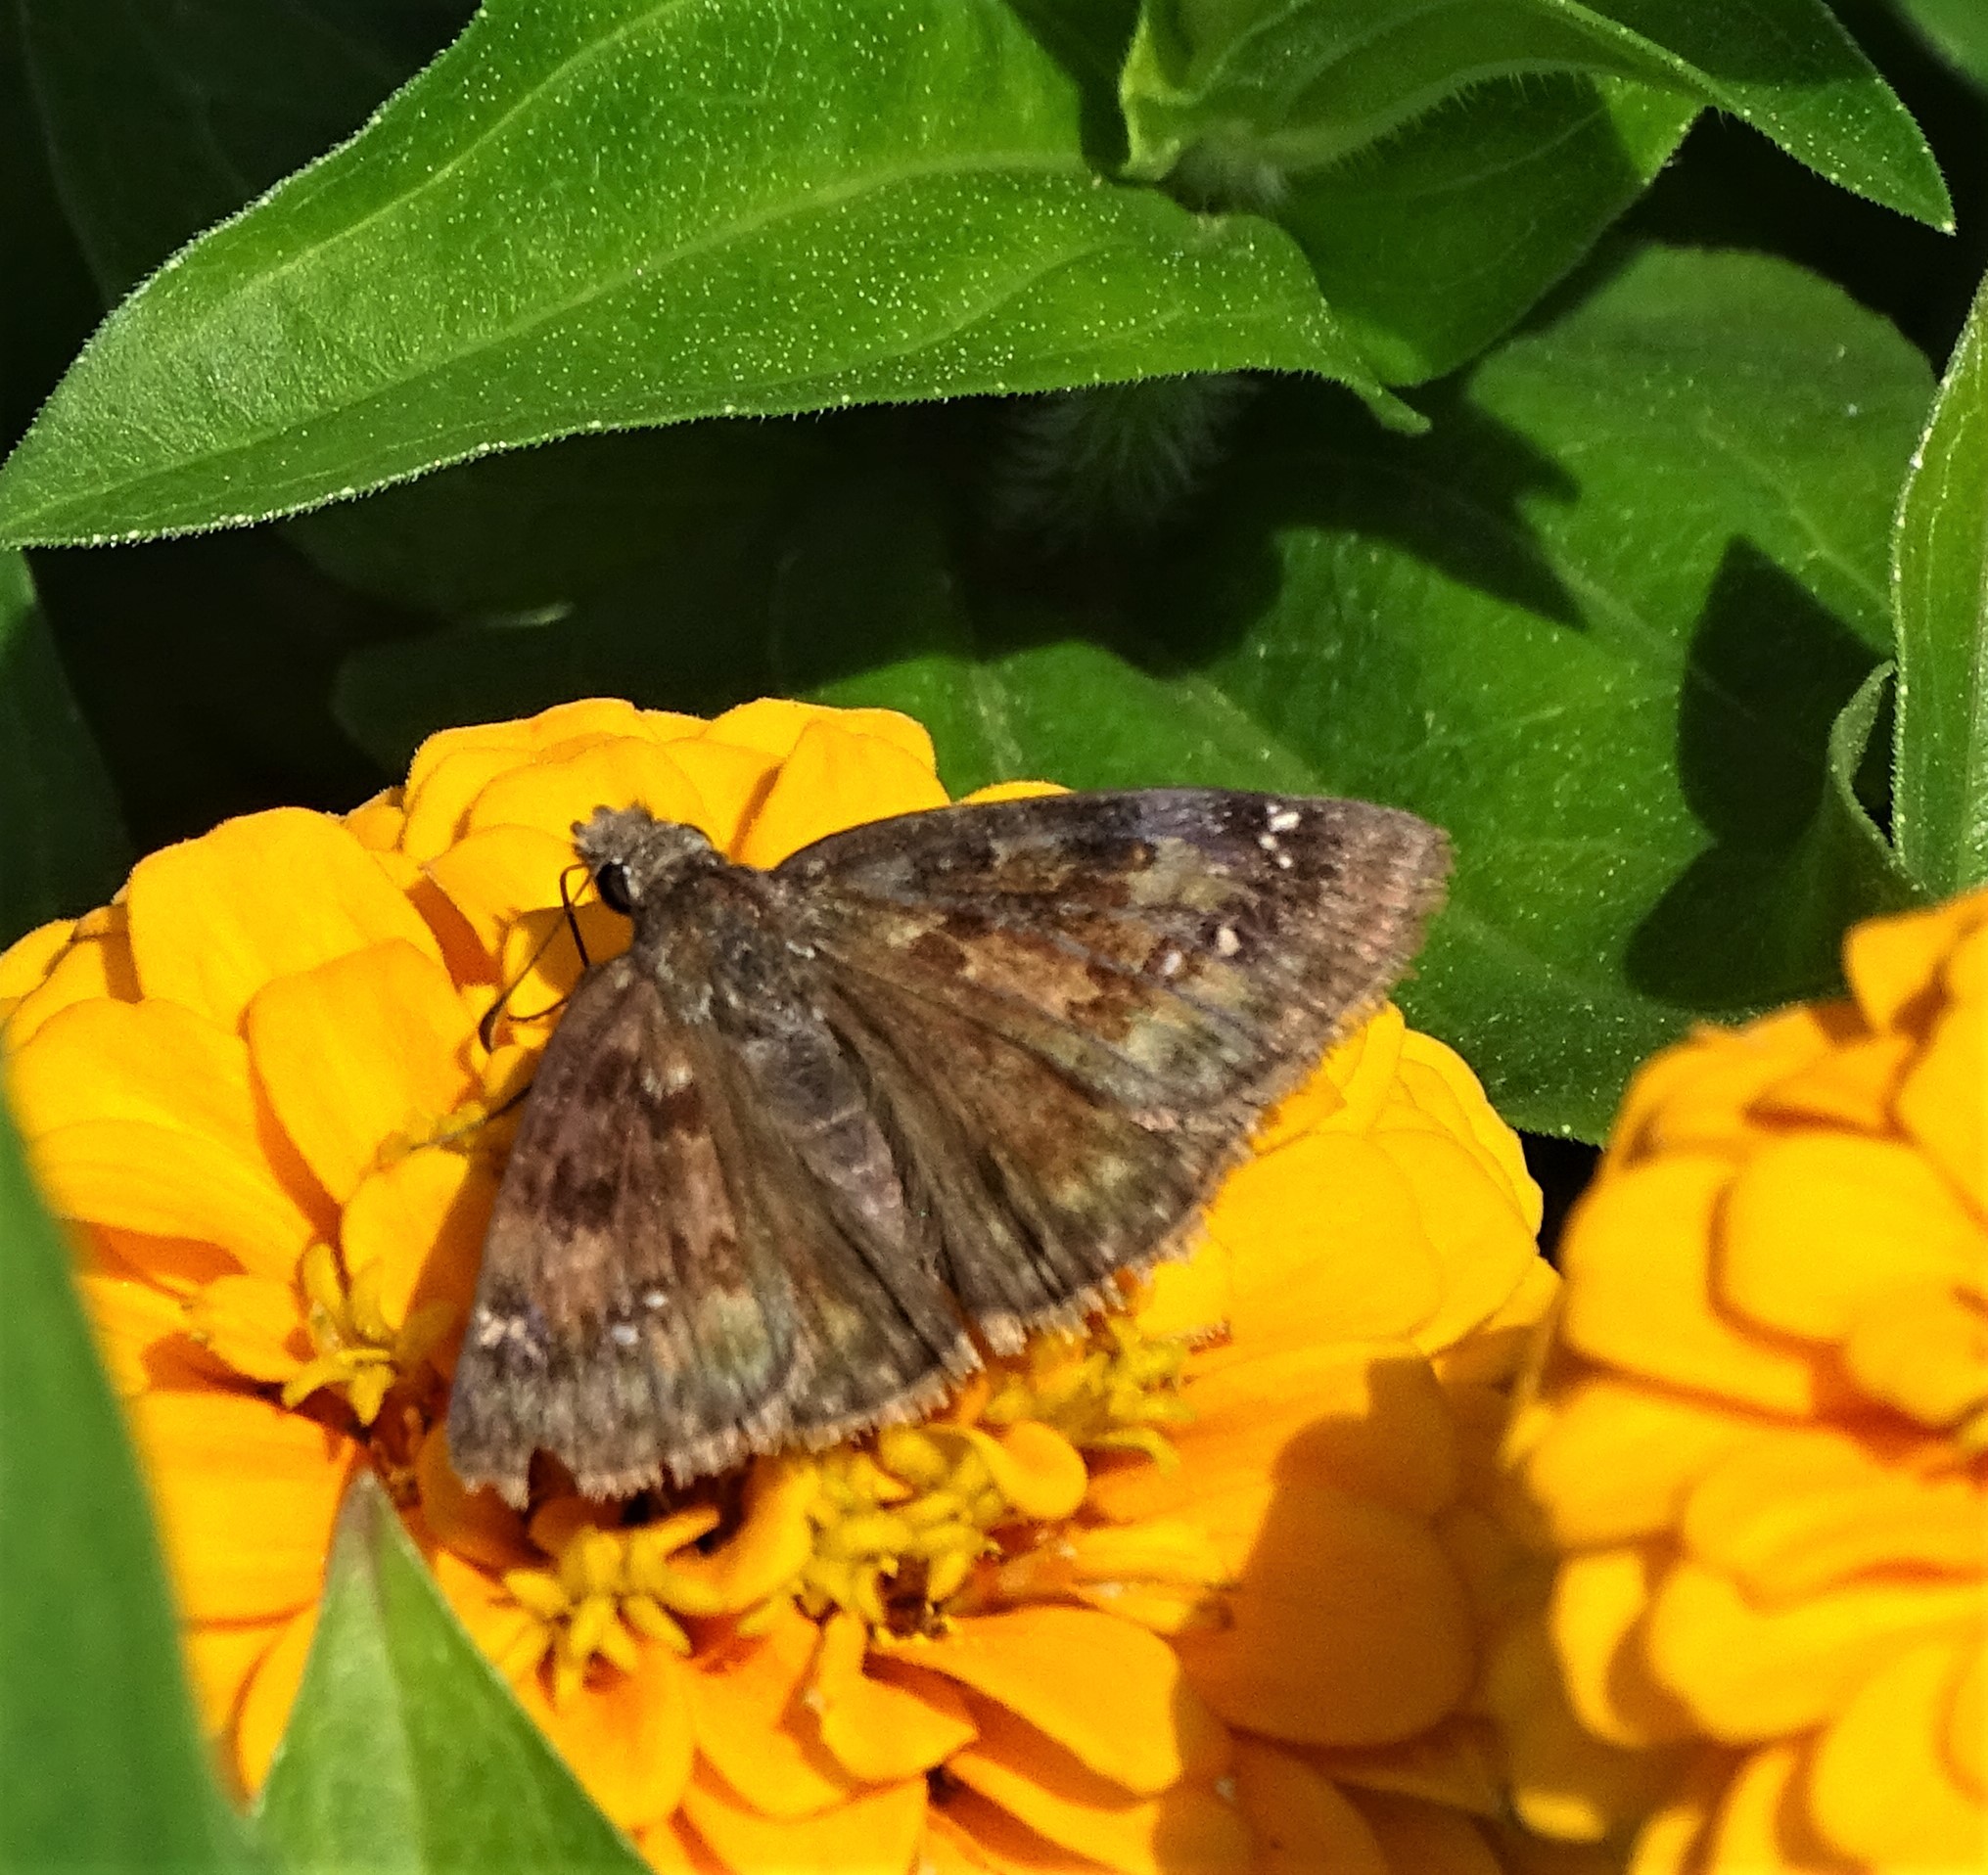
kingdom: Animalia
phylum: Arthropoda
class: Insecta
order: Lepidoptera
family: Hesperiidae
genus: Erynnis
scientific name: Erynnis baptisiae
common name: Wild indigo duskywing
